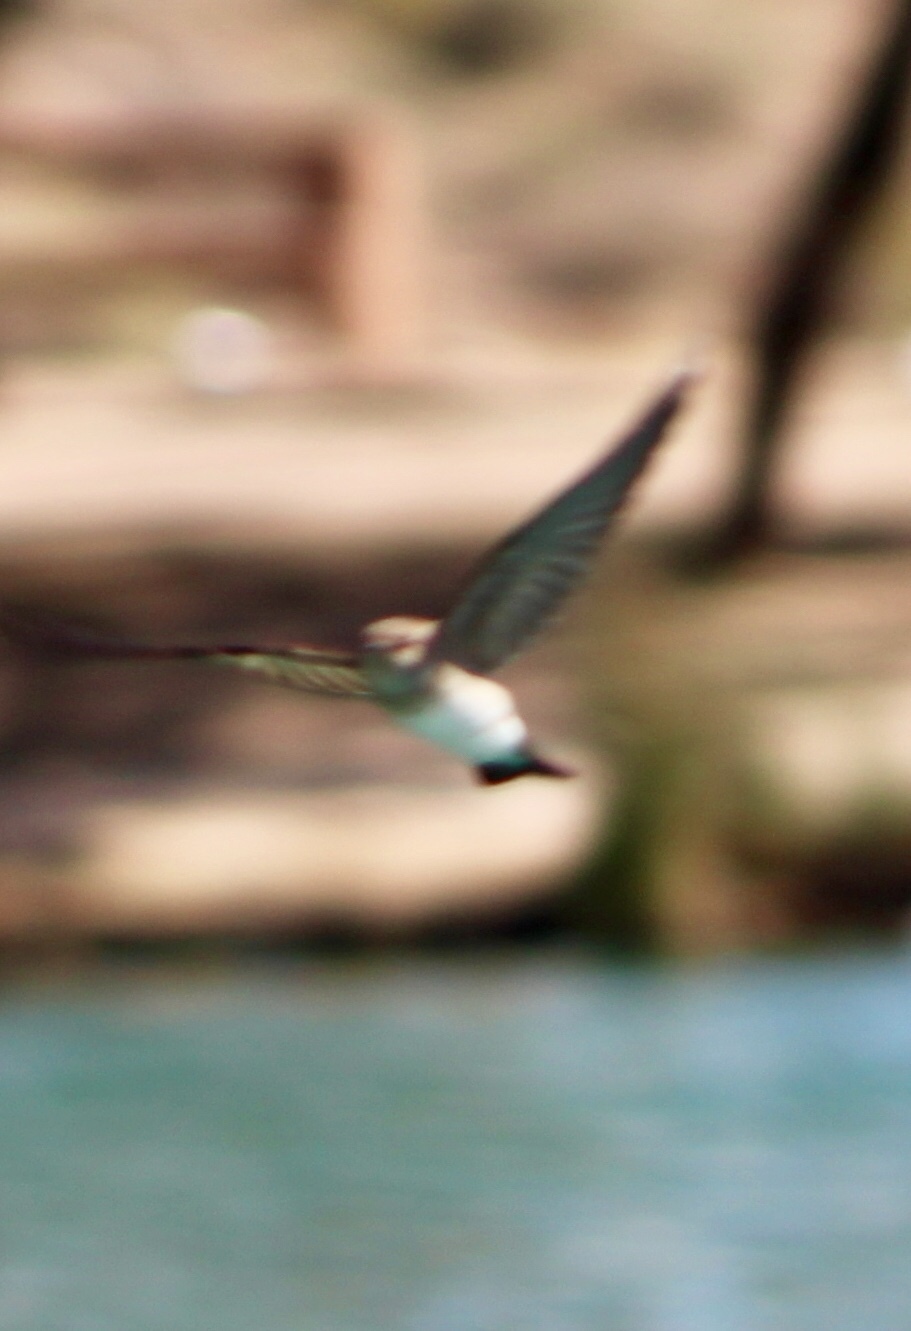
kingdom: Animalia
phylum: Chordata
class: Aves
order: Passeriformes
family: Hirundinidae
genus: Stelgidopteryx
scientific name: Stelgidopteryx serripennis
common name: Northern rough-winged swallow
